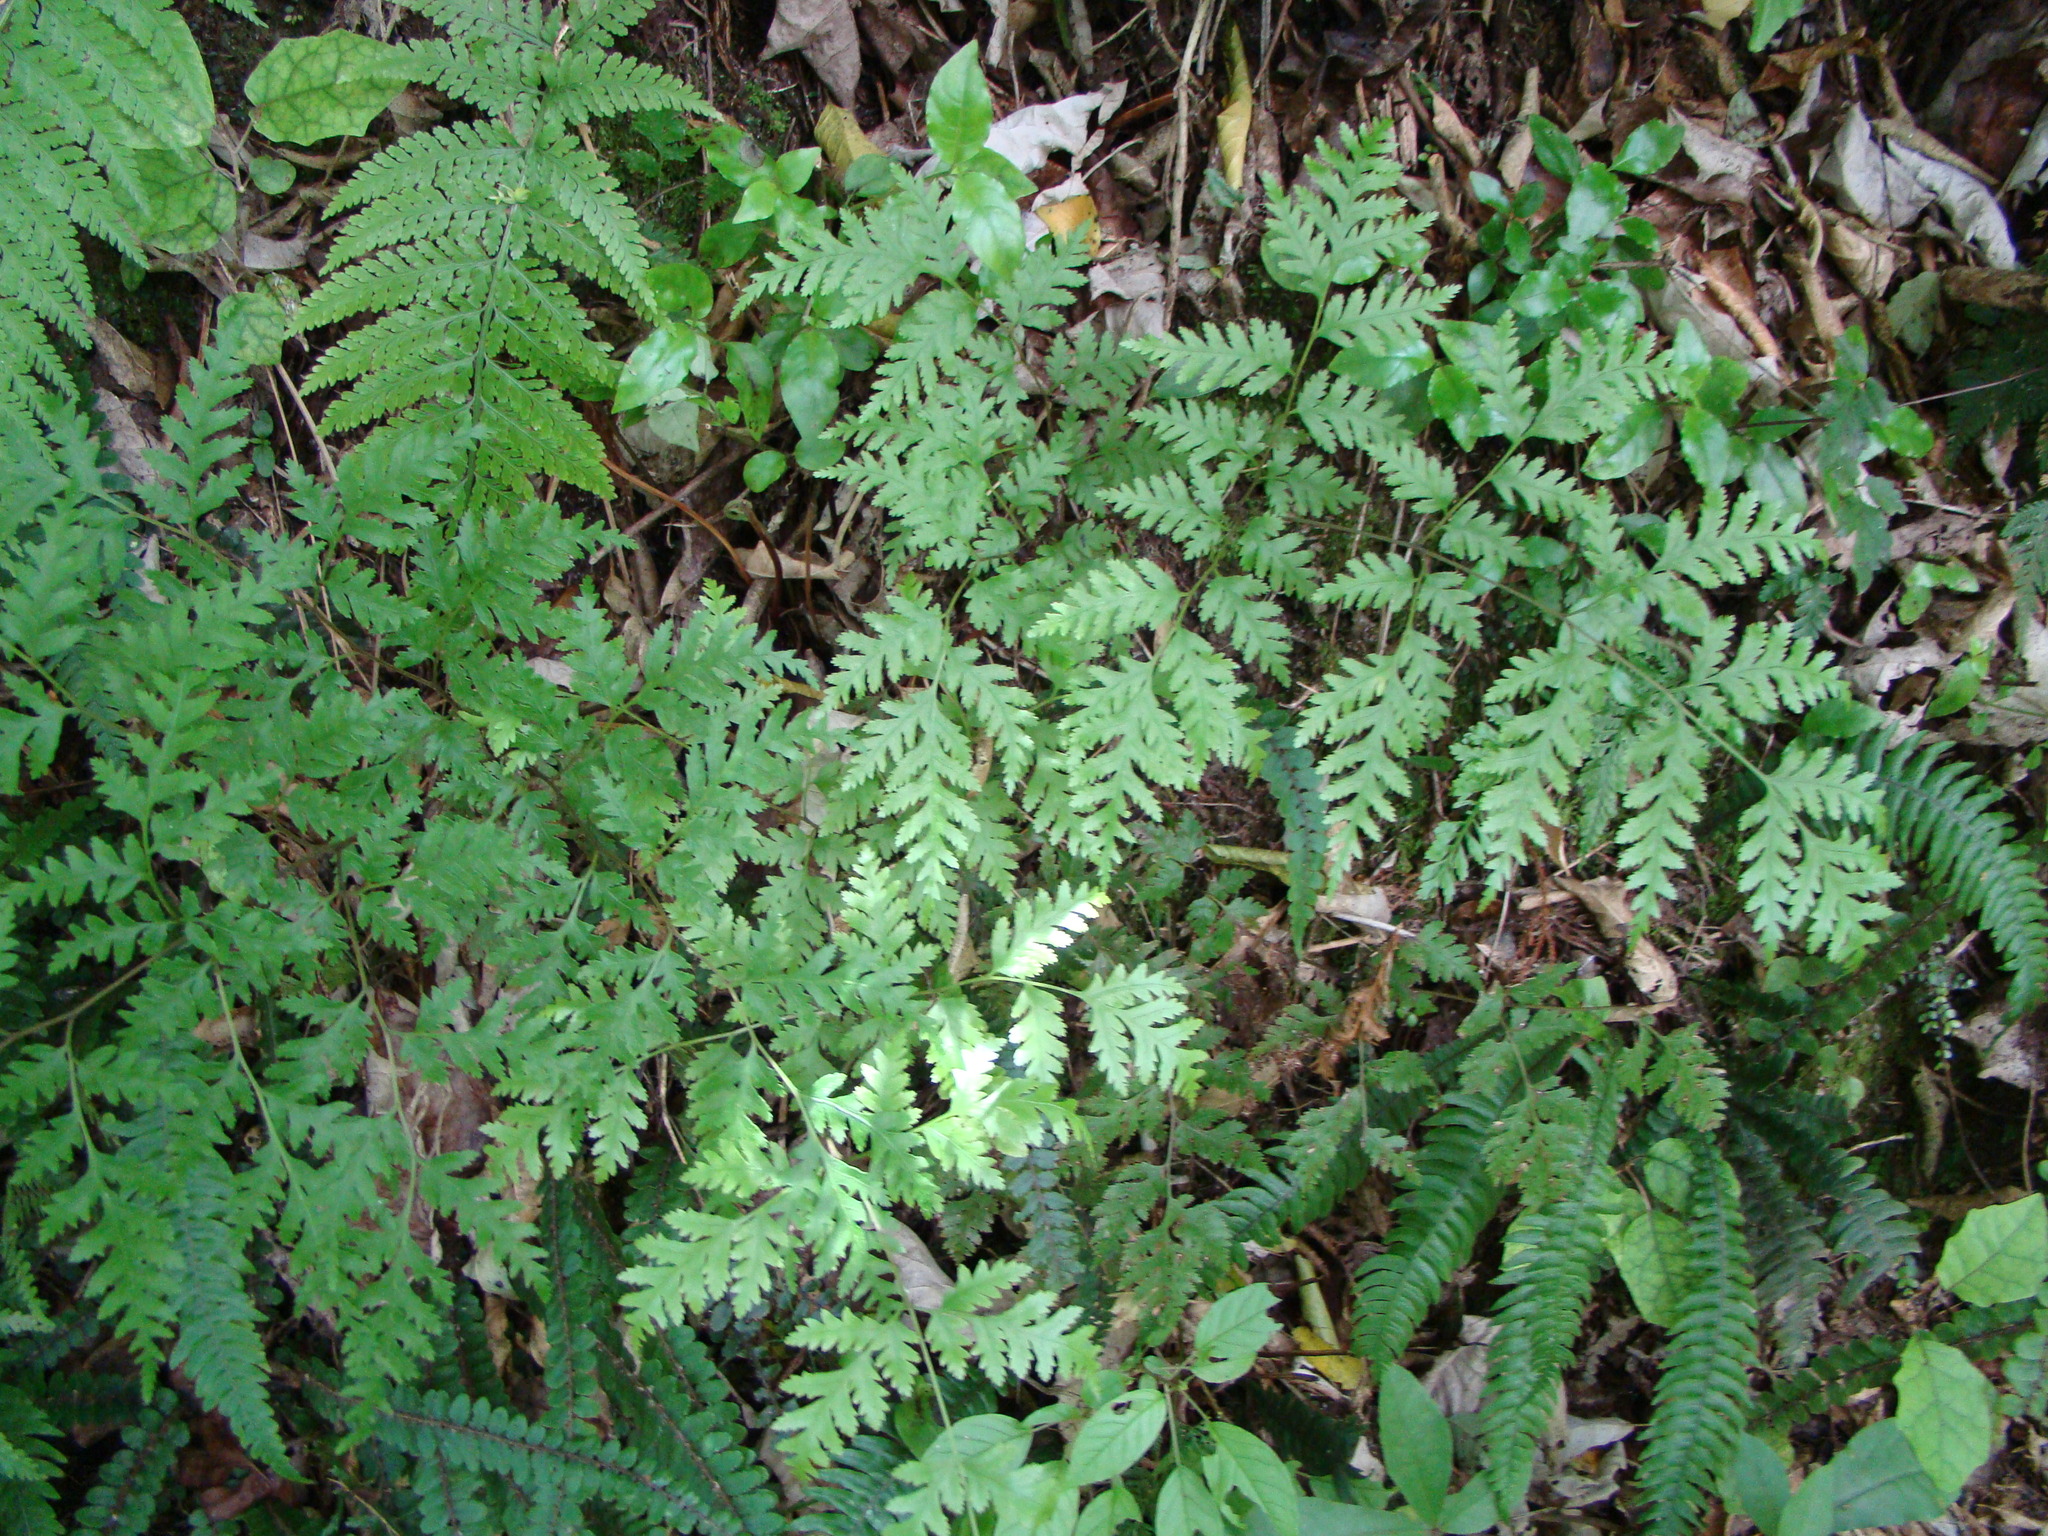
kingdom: Plantae
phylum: Tracheophyta
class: Polypodiopsida
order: Polypodiales
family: Pteridaceae
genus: Pteris
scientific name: Pteris macilenta
